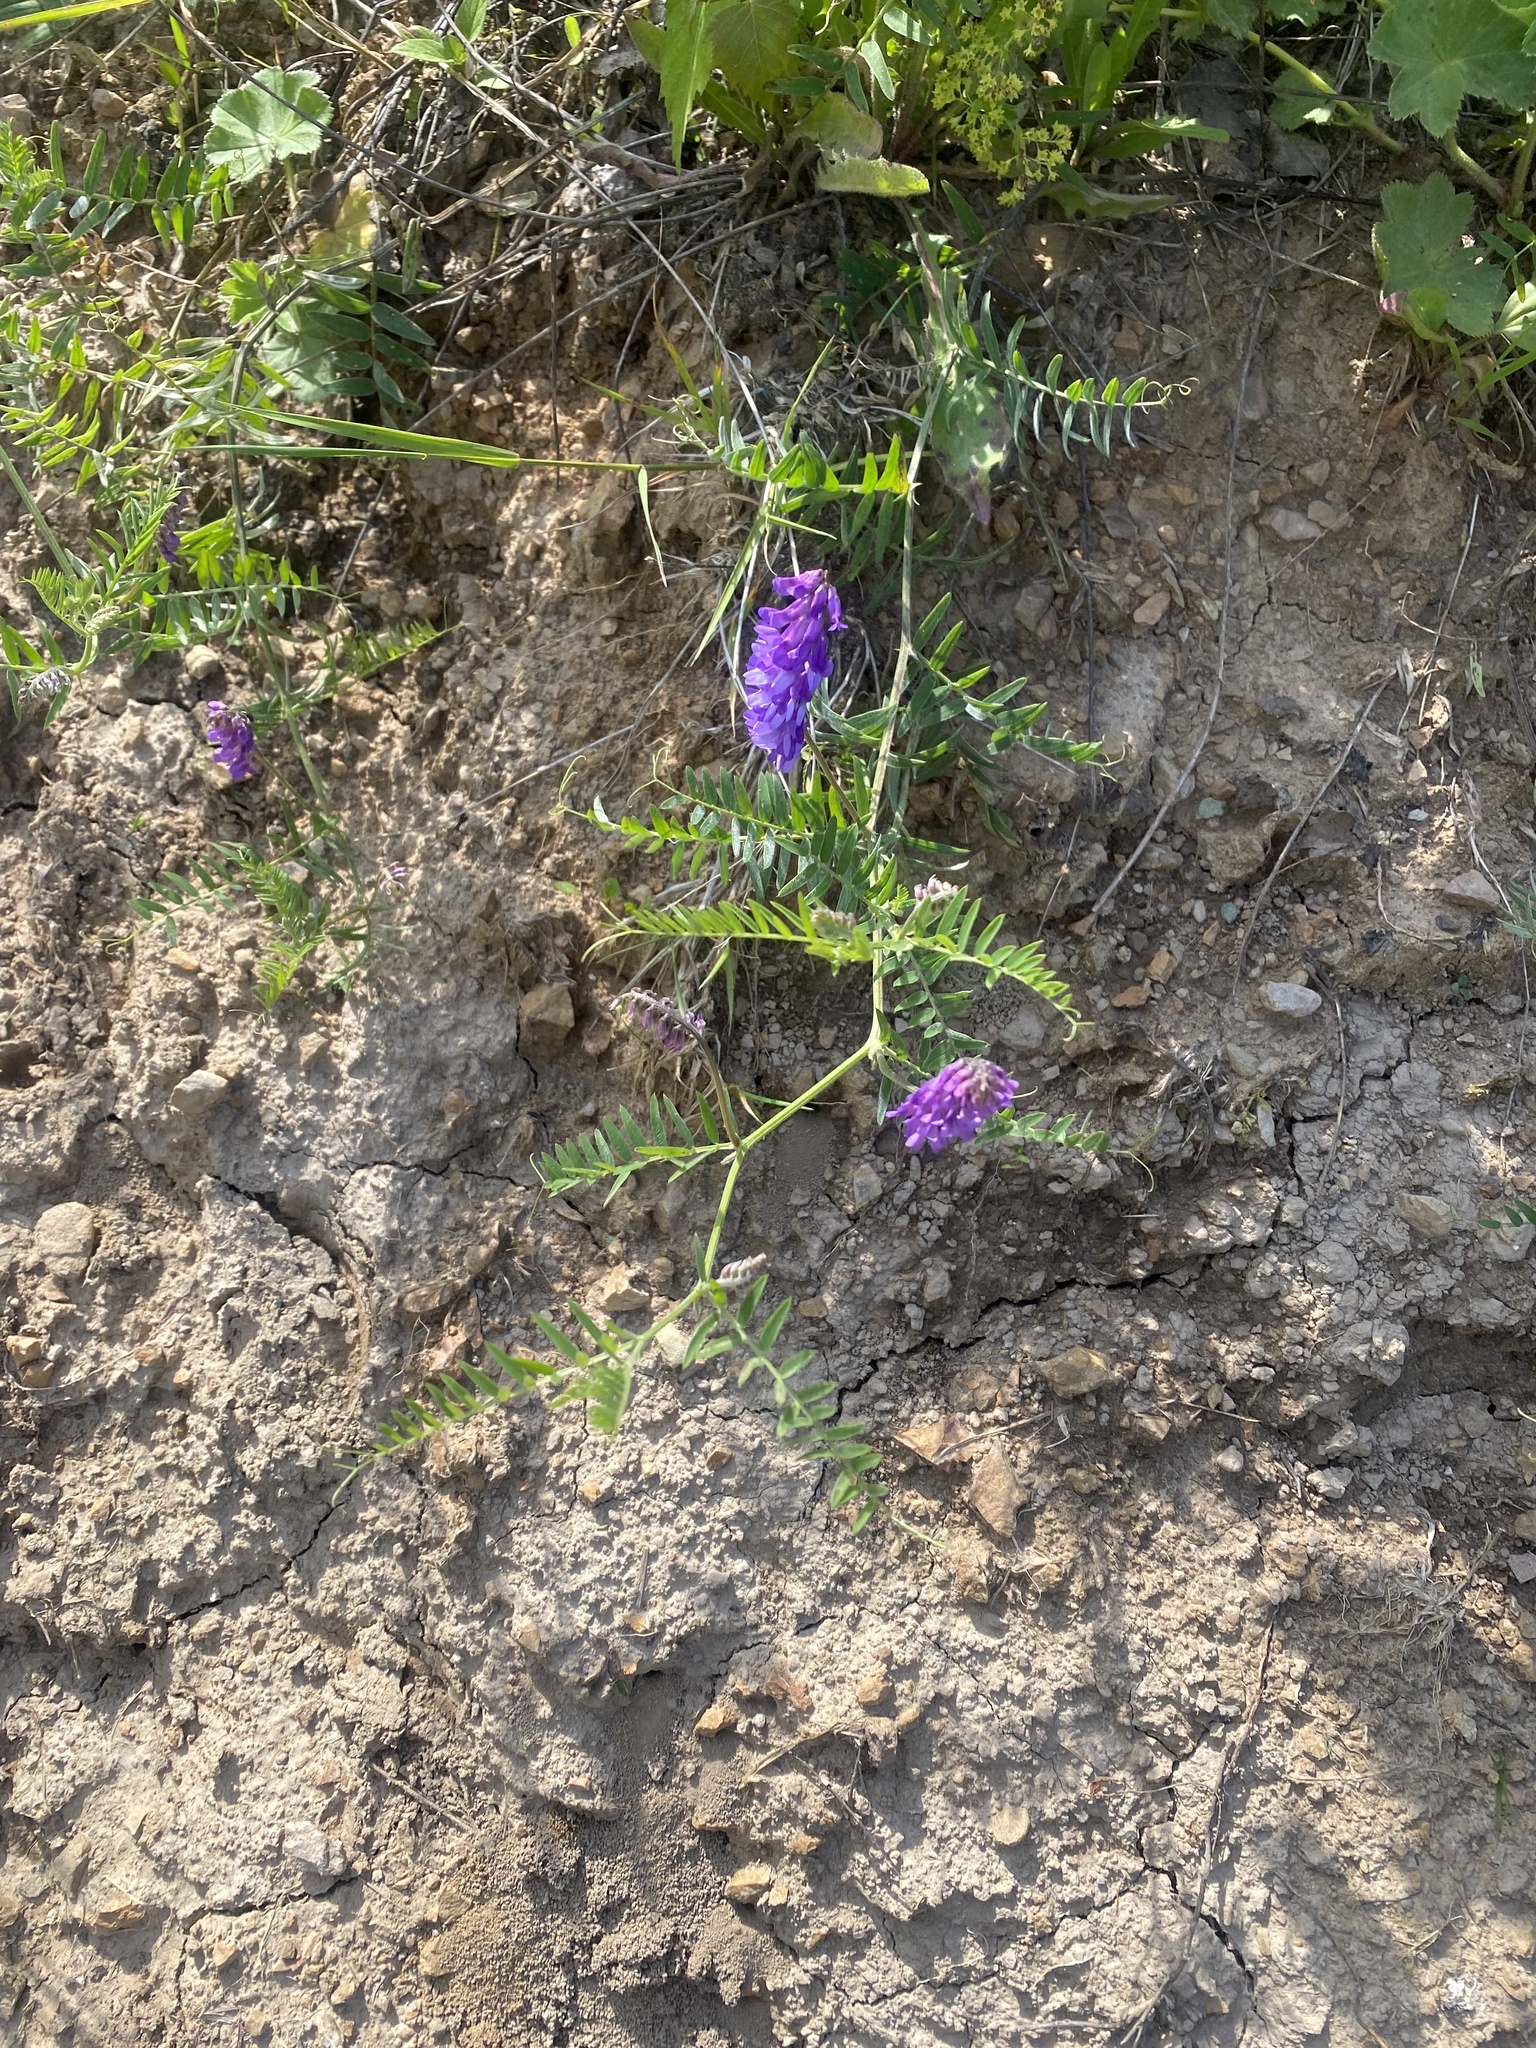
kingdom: Plantae
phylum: Tracheophyta
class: Magnoliopsida
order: Fabales
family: Fabaceae
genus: Vicia
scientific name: Vicia cracca
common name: Bird vetch
